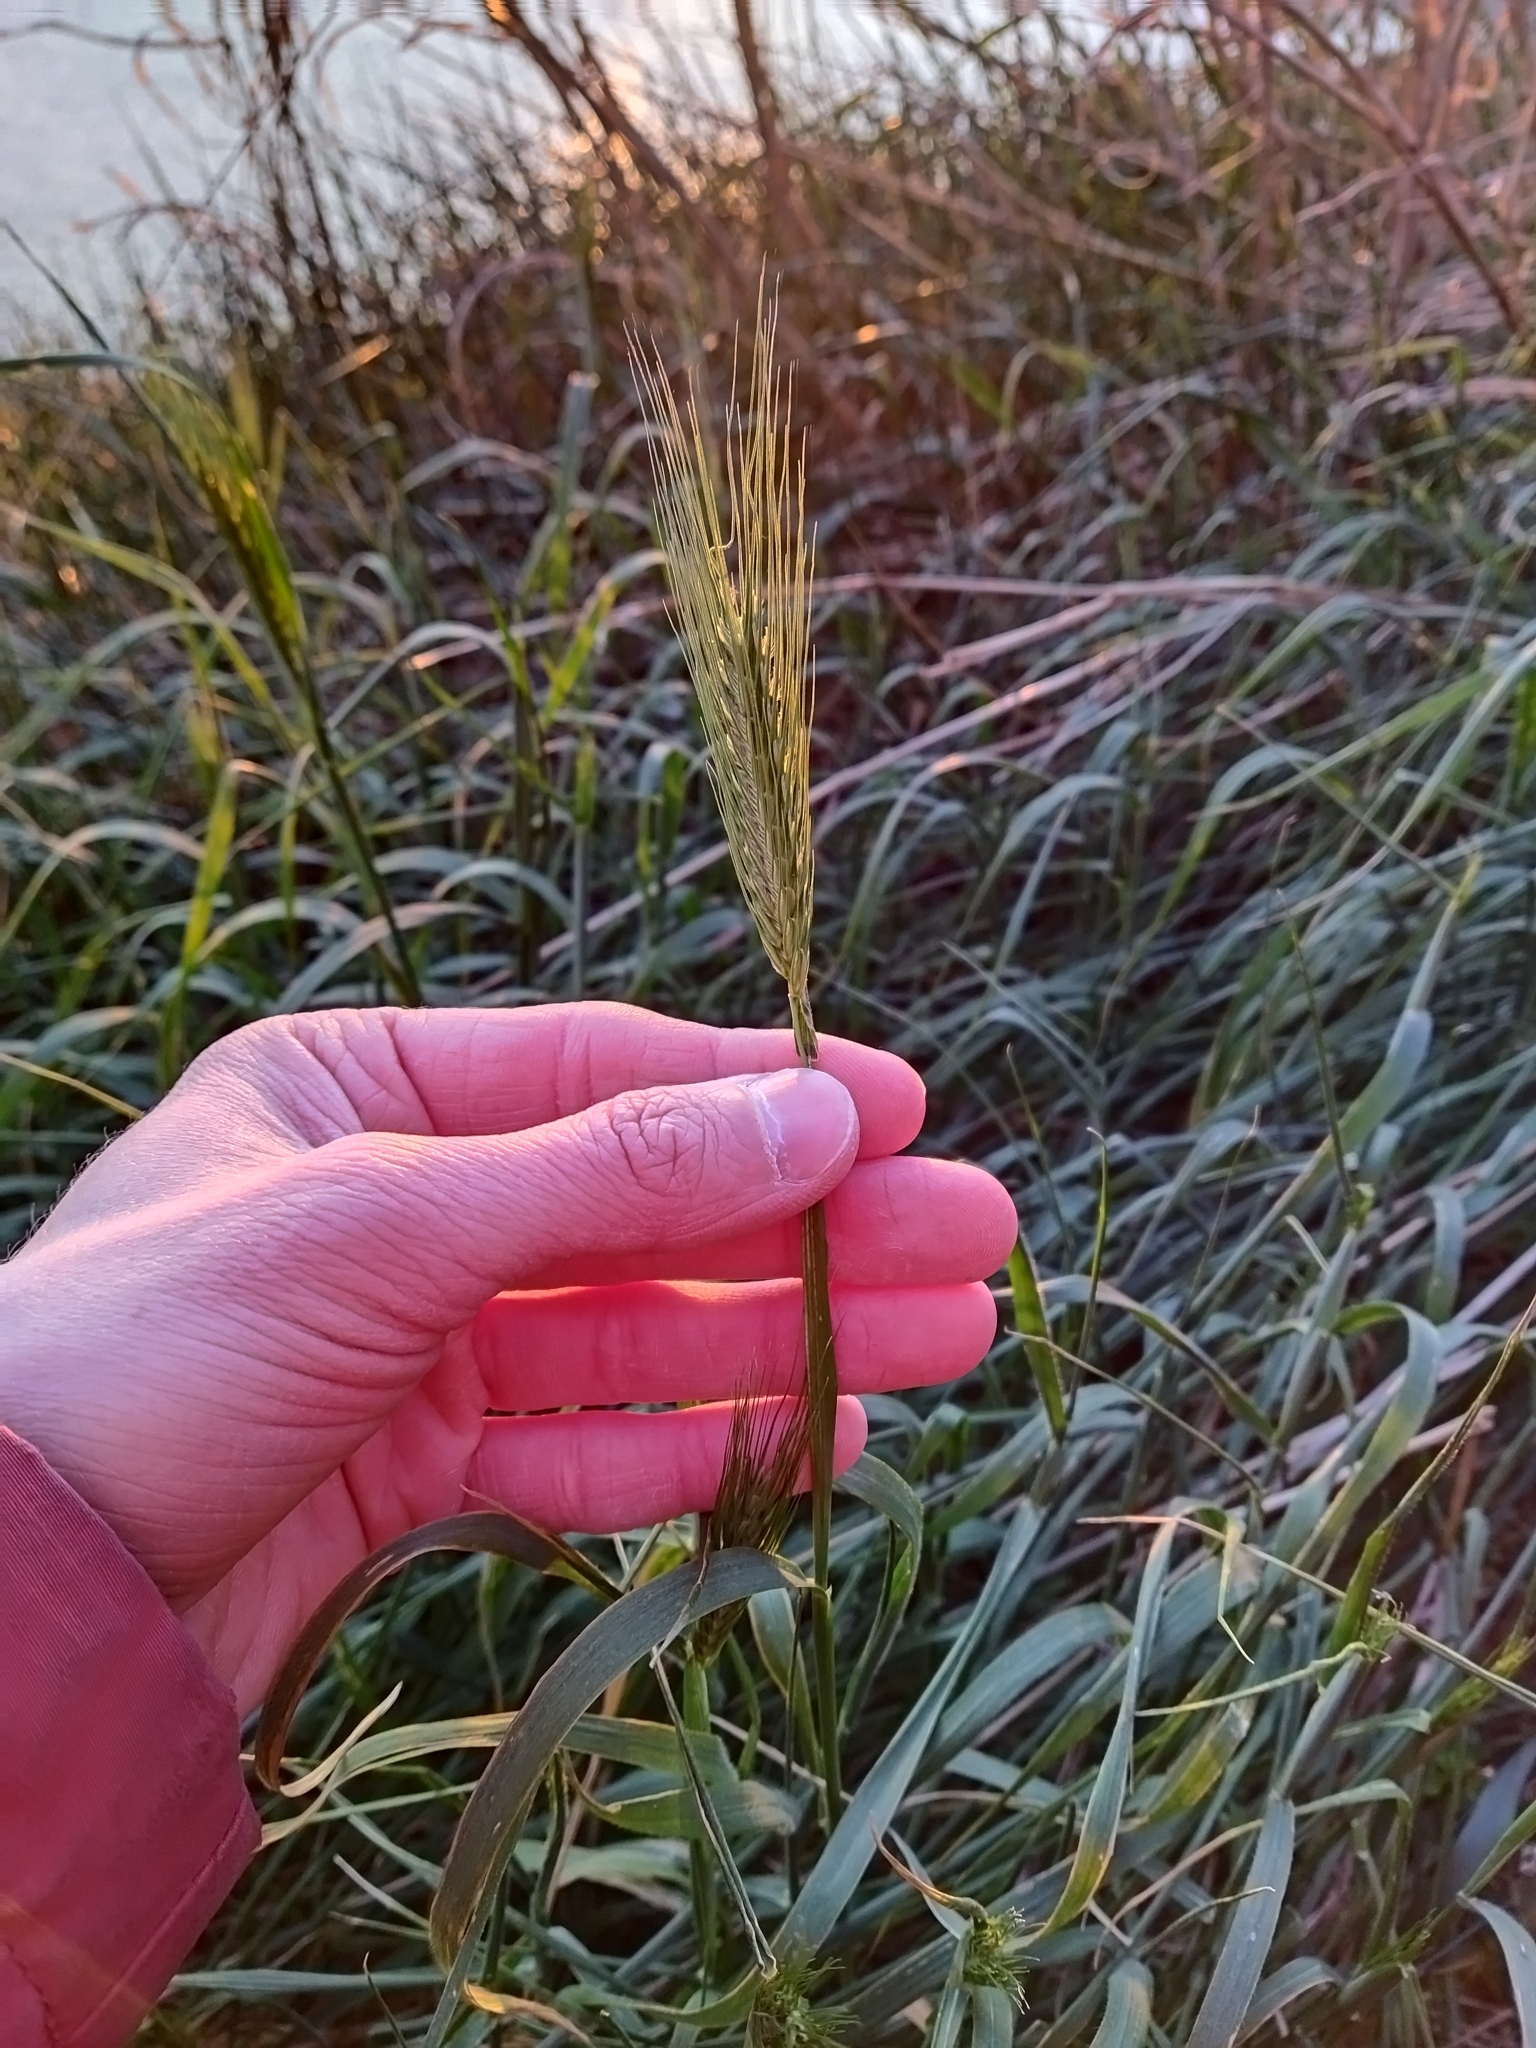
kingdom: Plantae
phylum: Tracheophyta
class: Liliopsida
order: Poales
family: Poaceae
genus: Hordeum
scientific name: Hordeum murinum
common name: Wall barley
